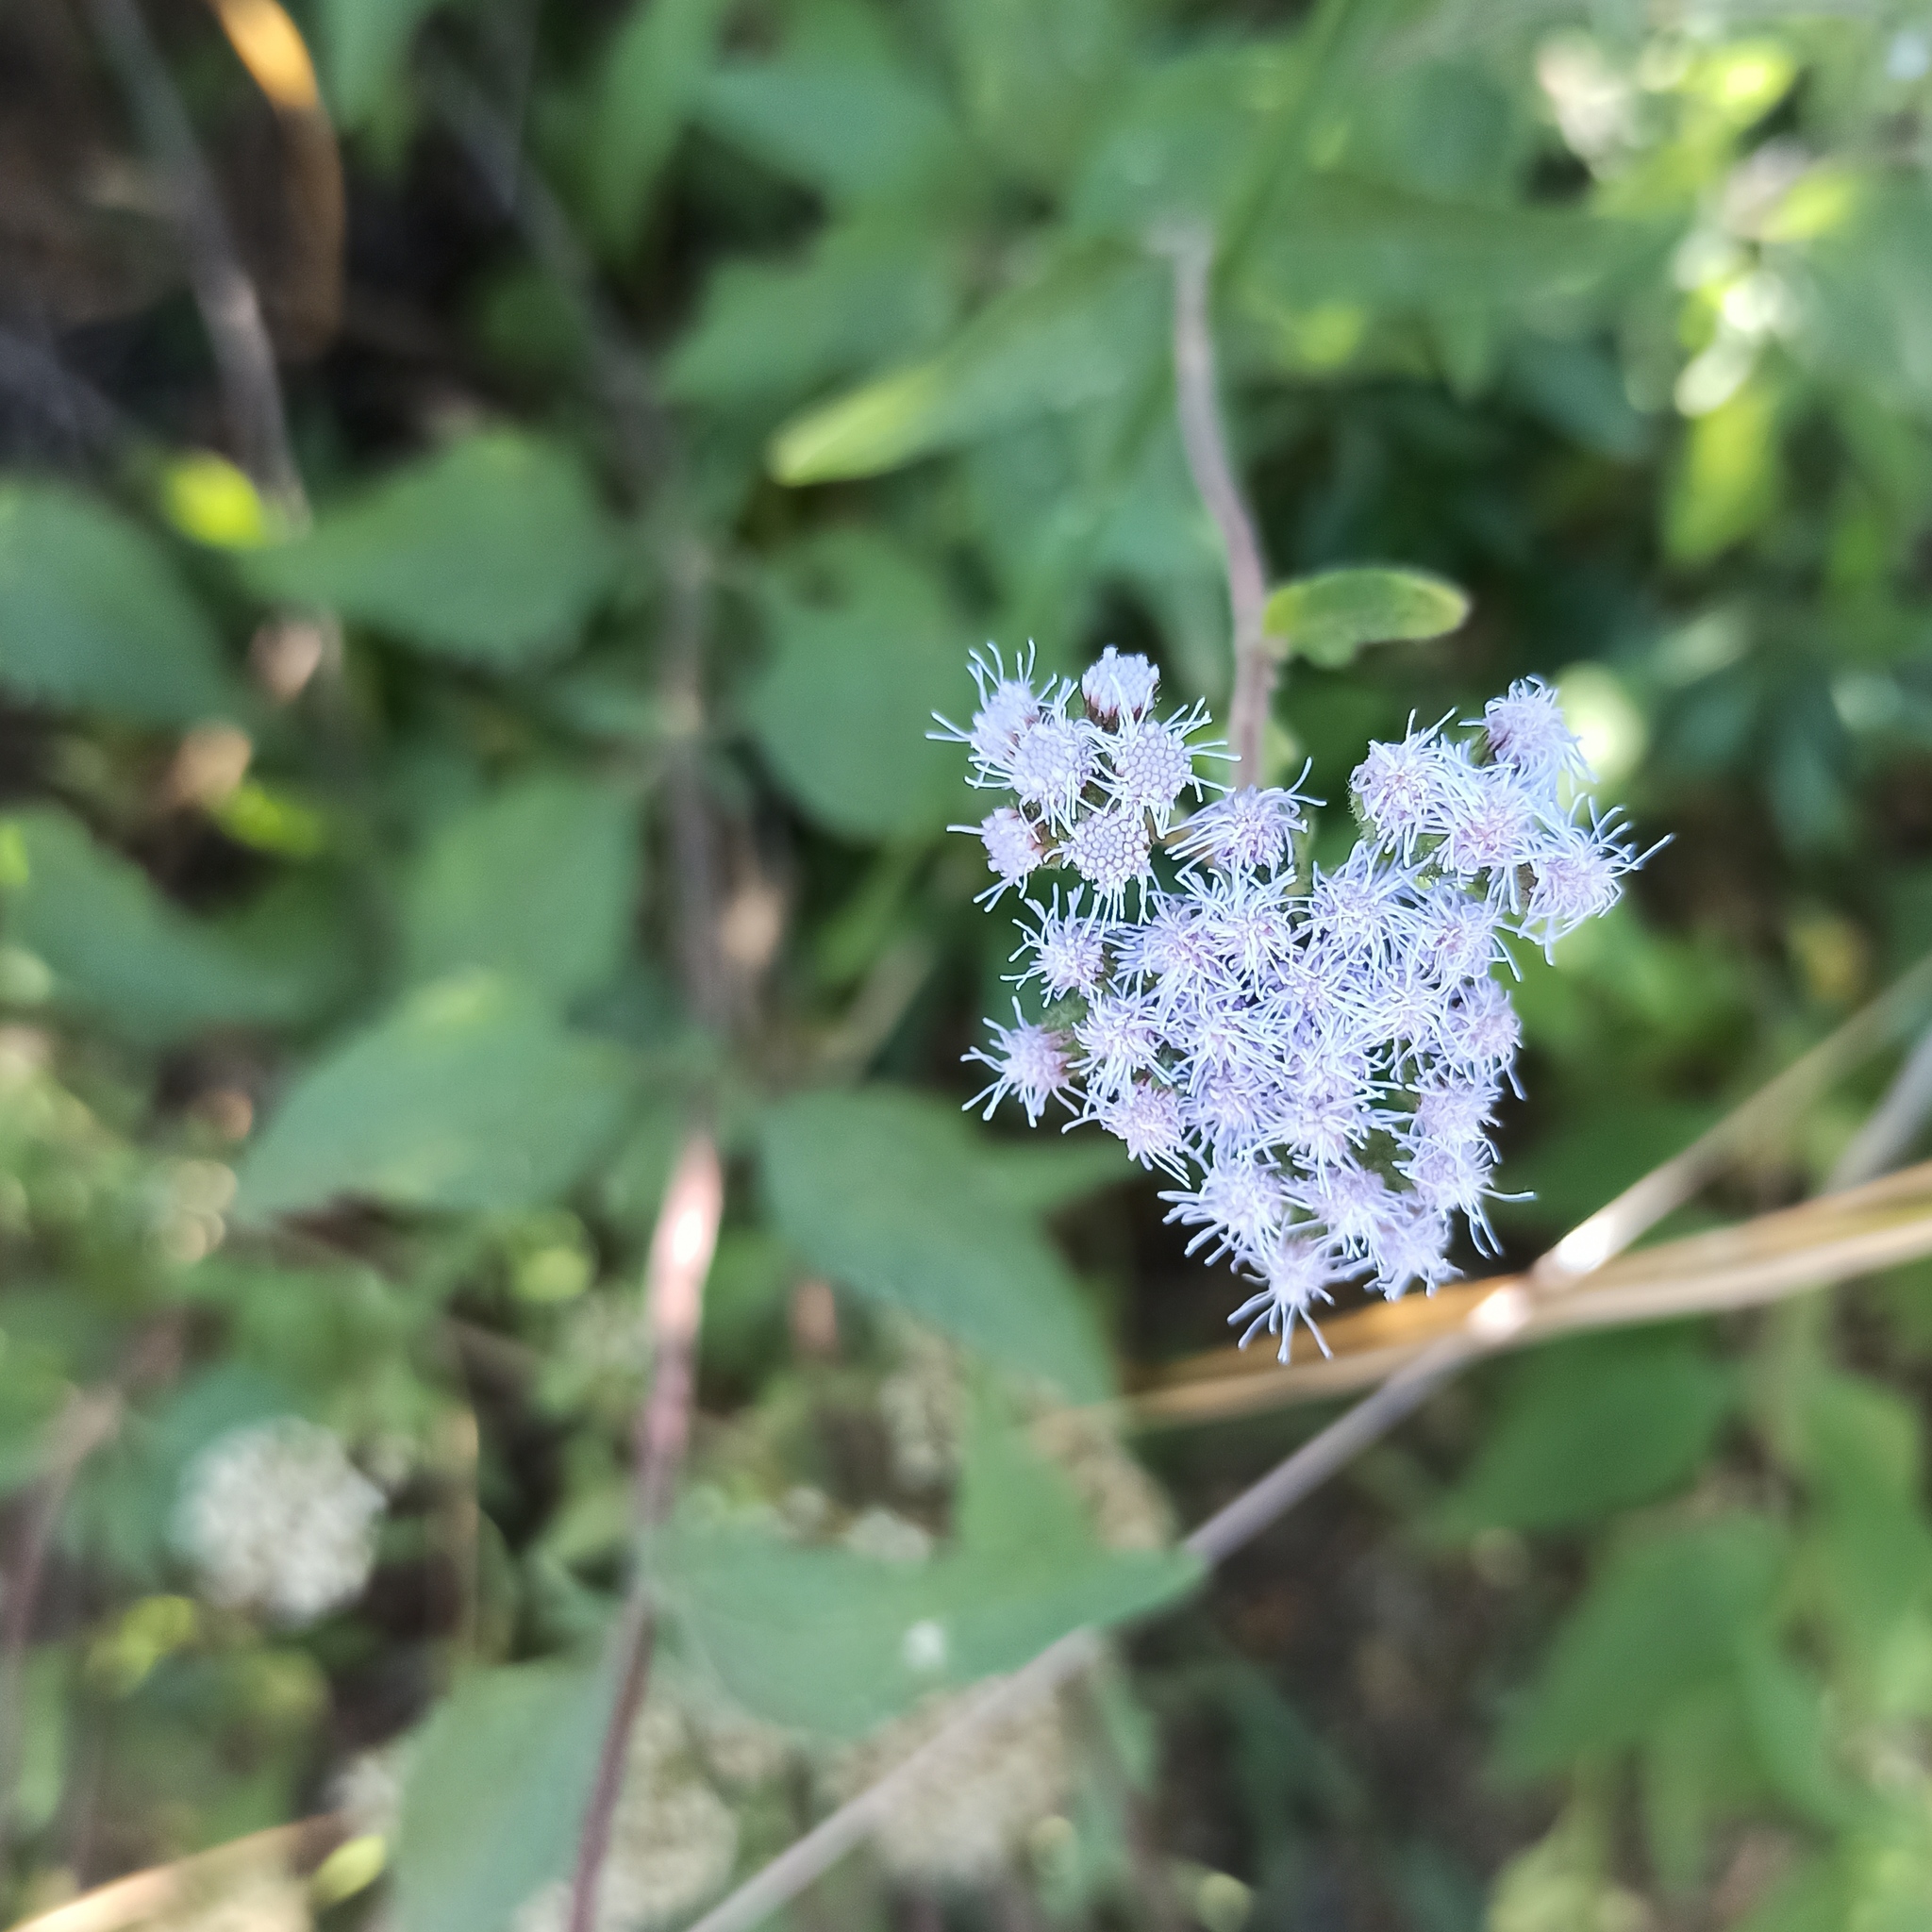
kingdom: Plantae
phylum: Tracheophyta
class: Magnoliopsida
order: Asterales
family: Asteraceae
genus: Ageratum
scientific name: Ageratum corymbosum
